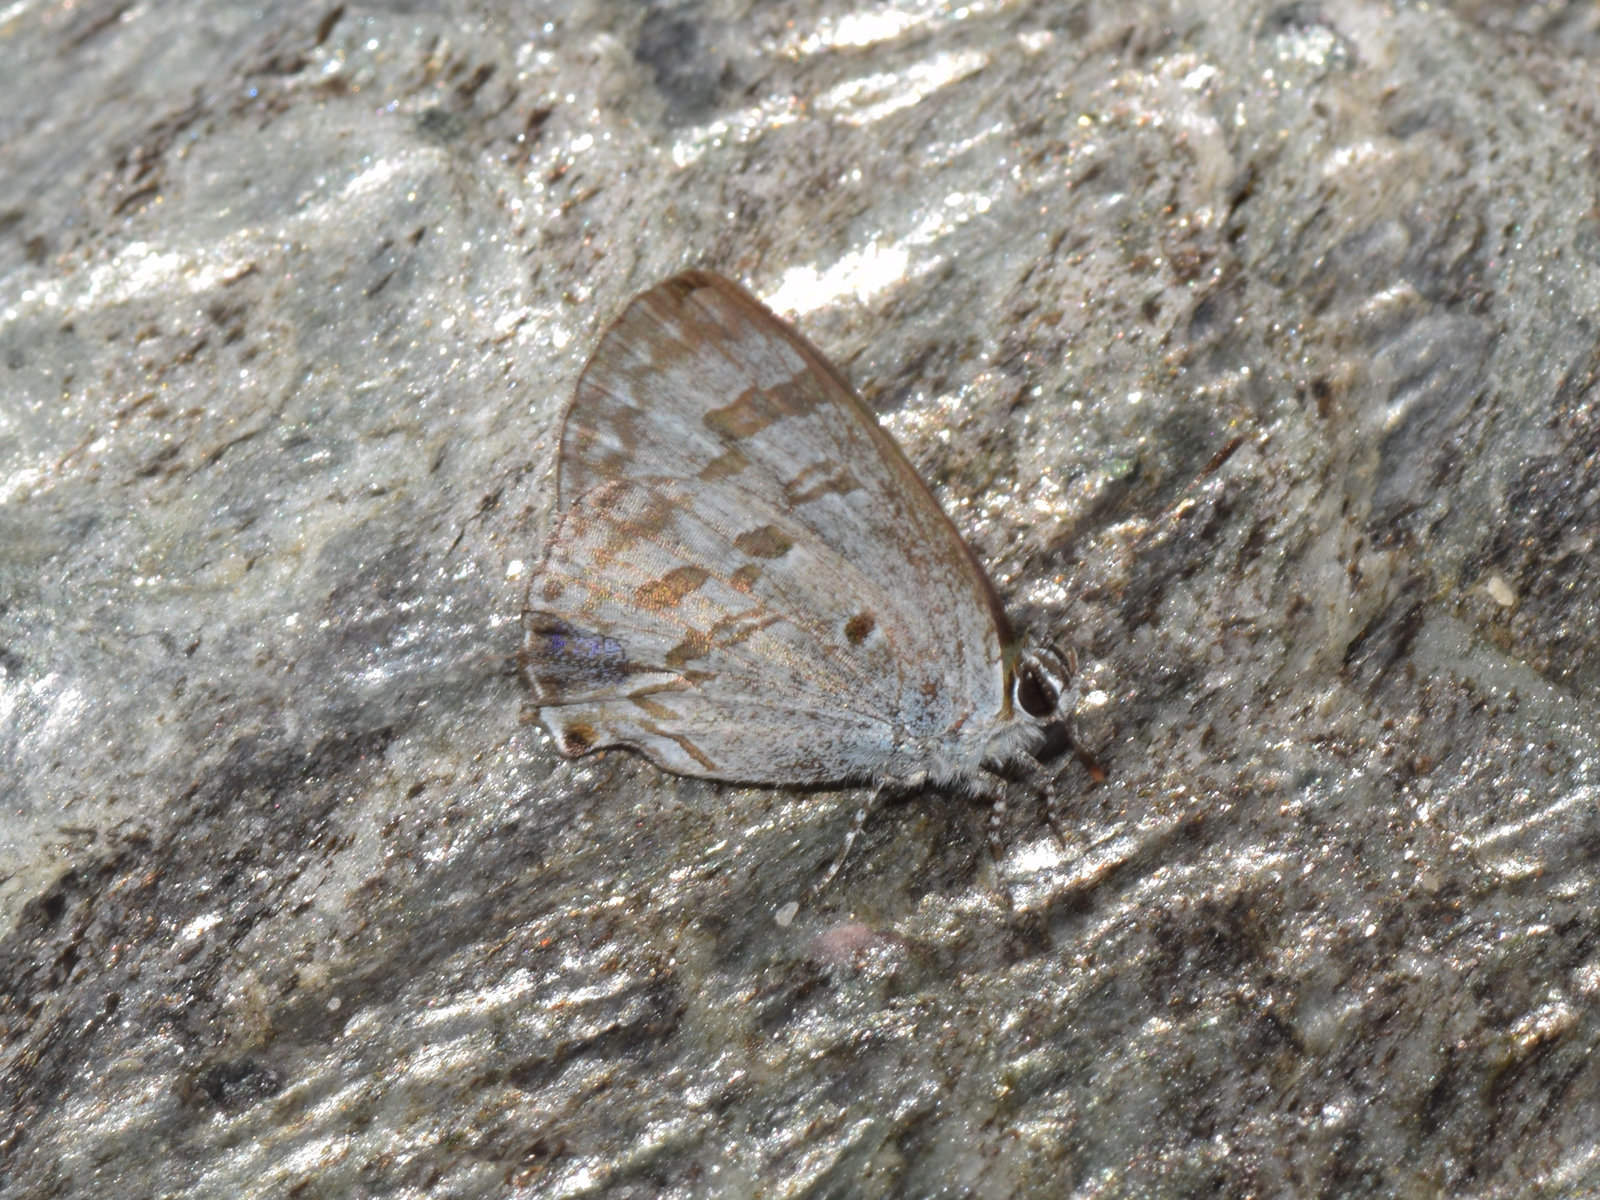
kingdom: Animalia
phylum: Arthropoda
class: Insecta
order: Lepidoptera
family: Lycaenidae
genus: Chliaria
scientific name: Chliaria kina
